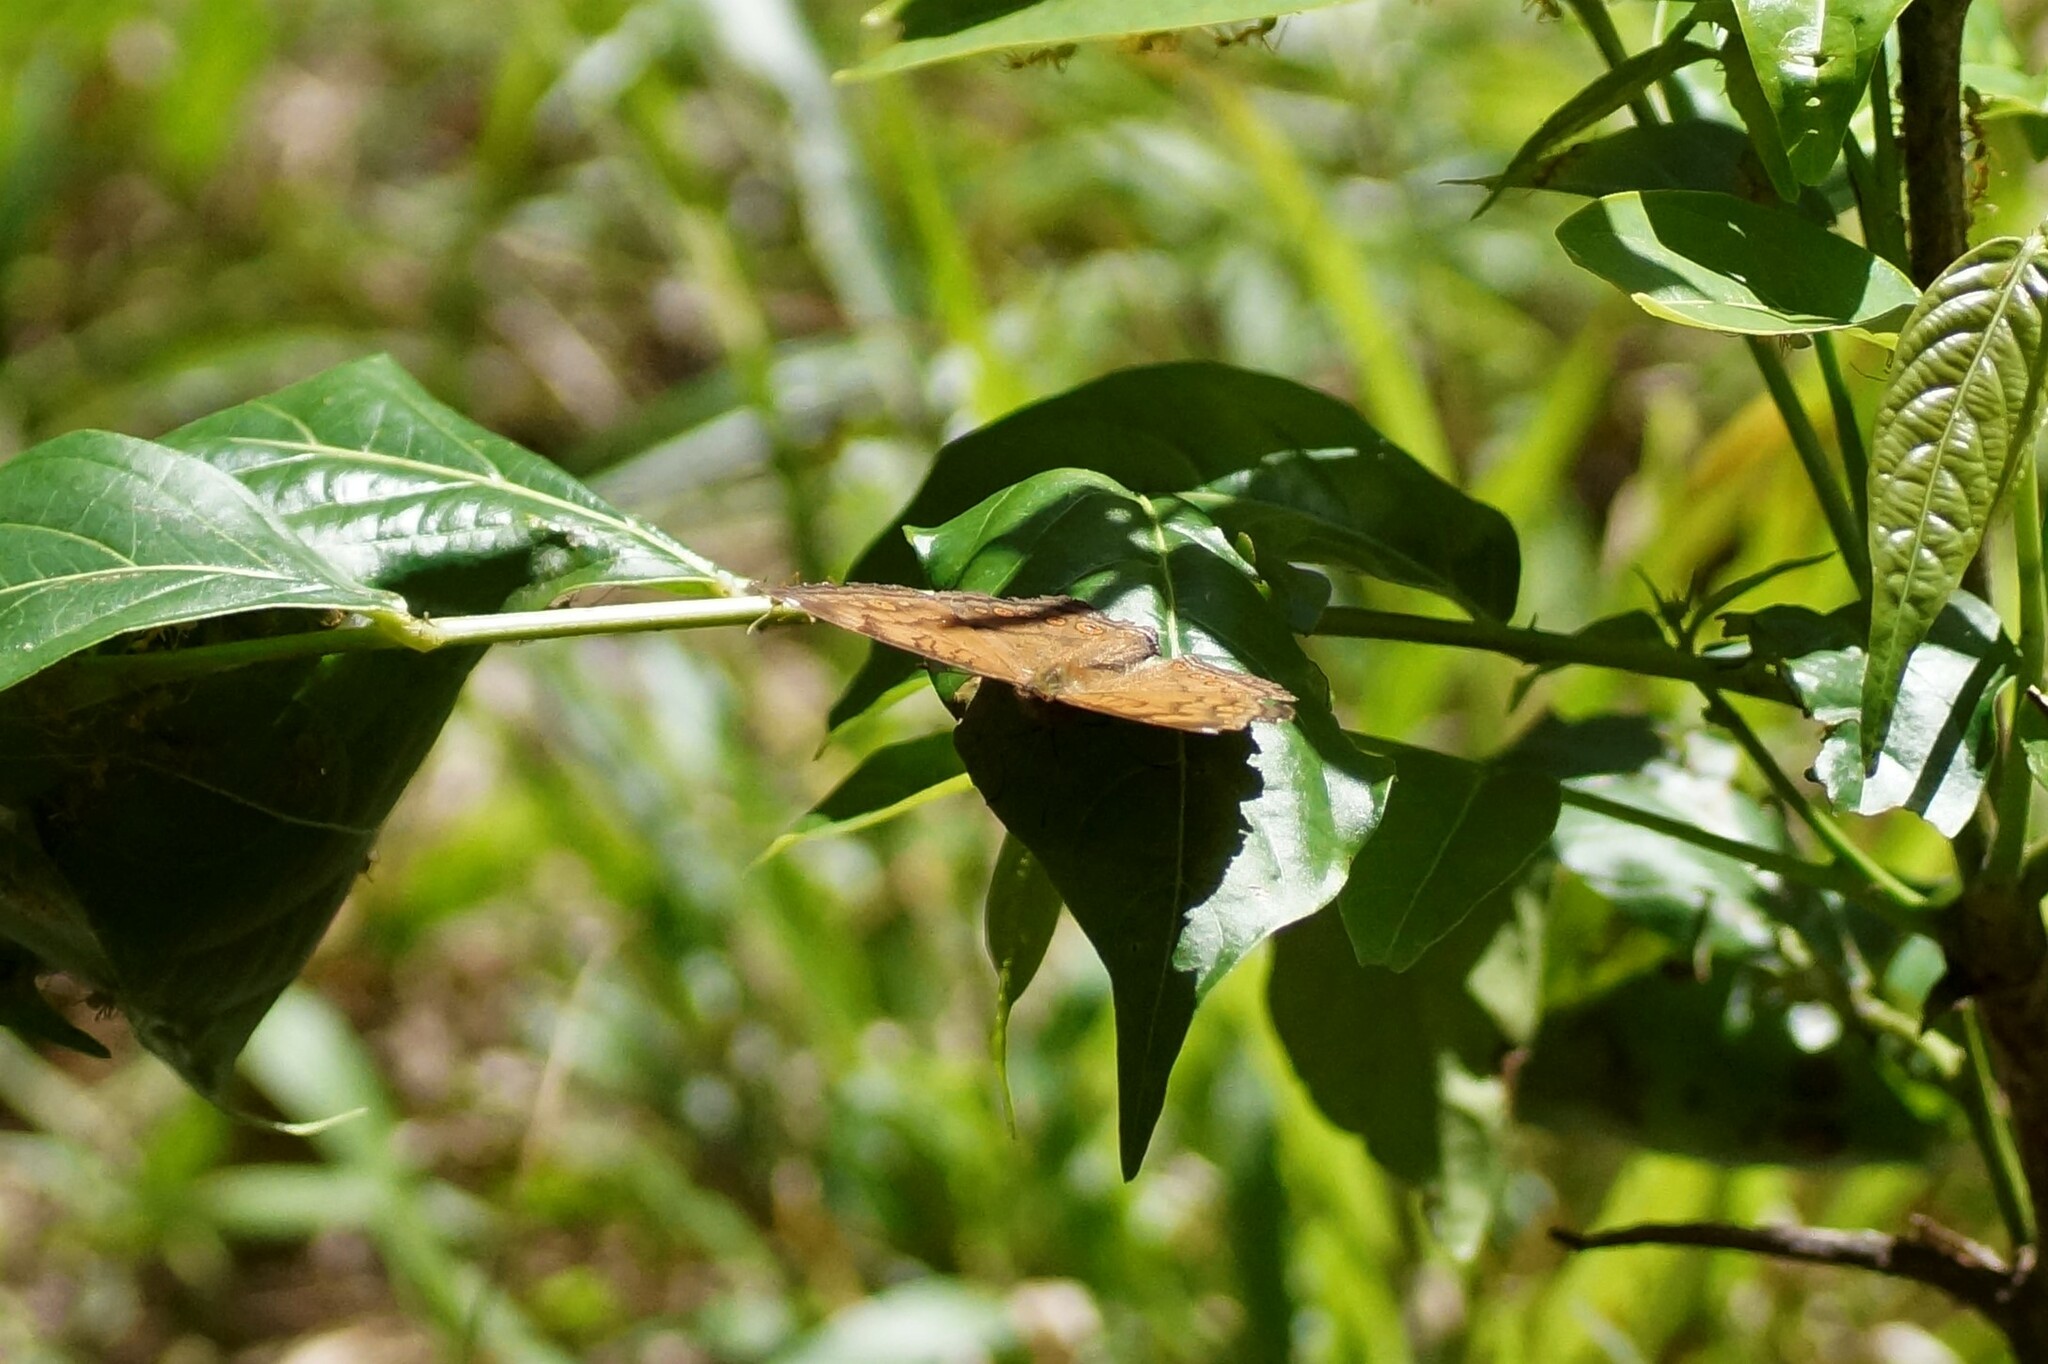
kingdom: Animalia
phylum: Arthropoda
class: Insecta
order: Lepidoptera
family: Nymphalidae
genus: Junonia
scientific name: Junonia hedonia
